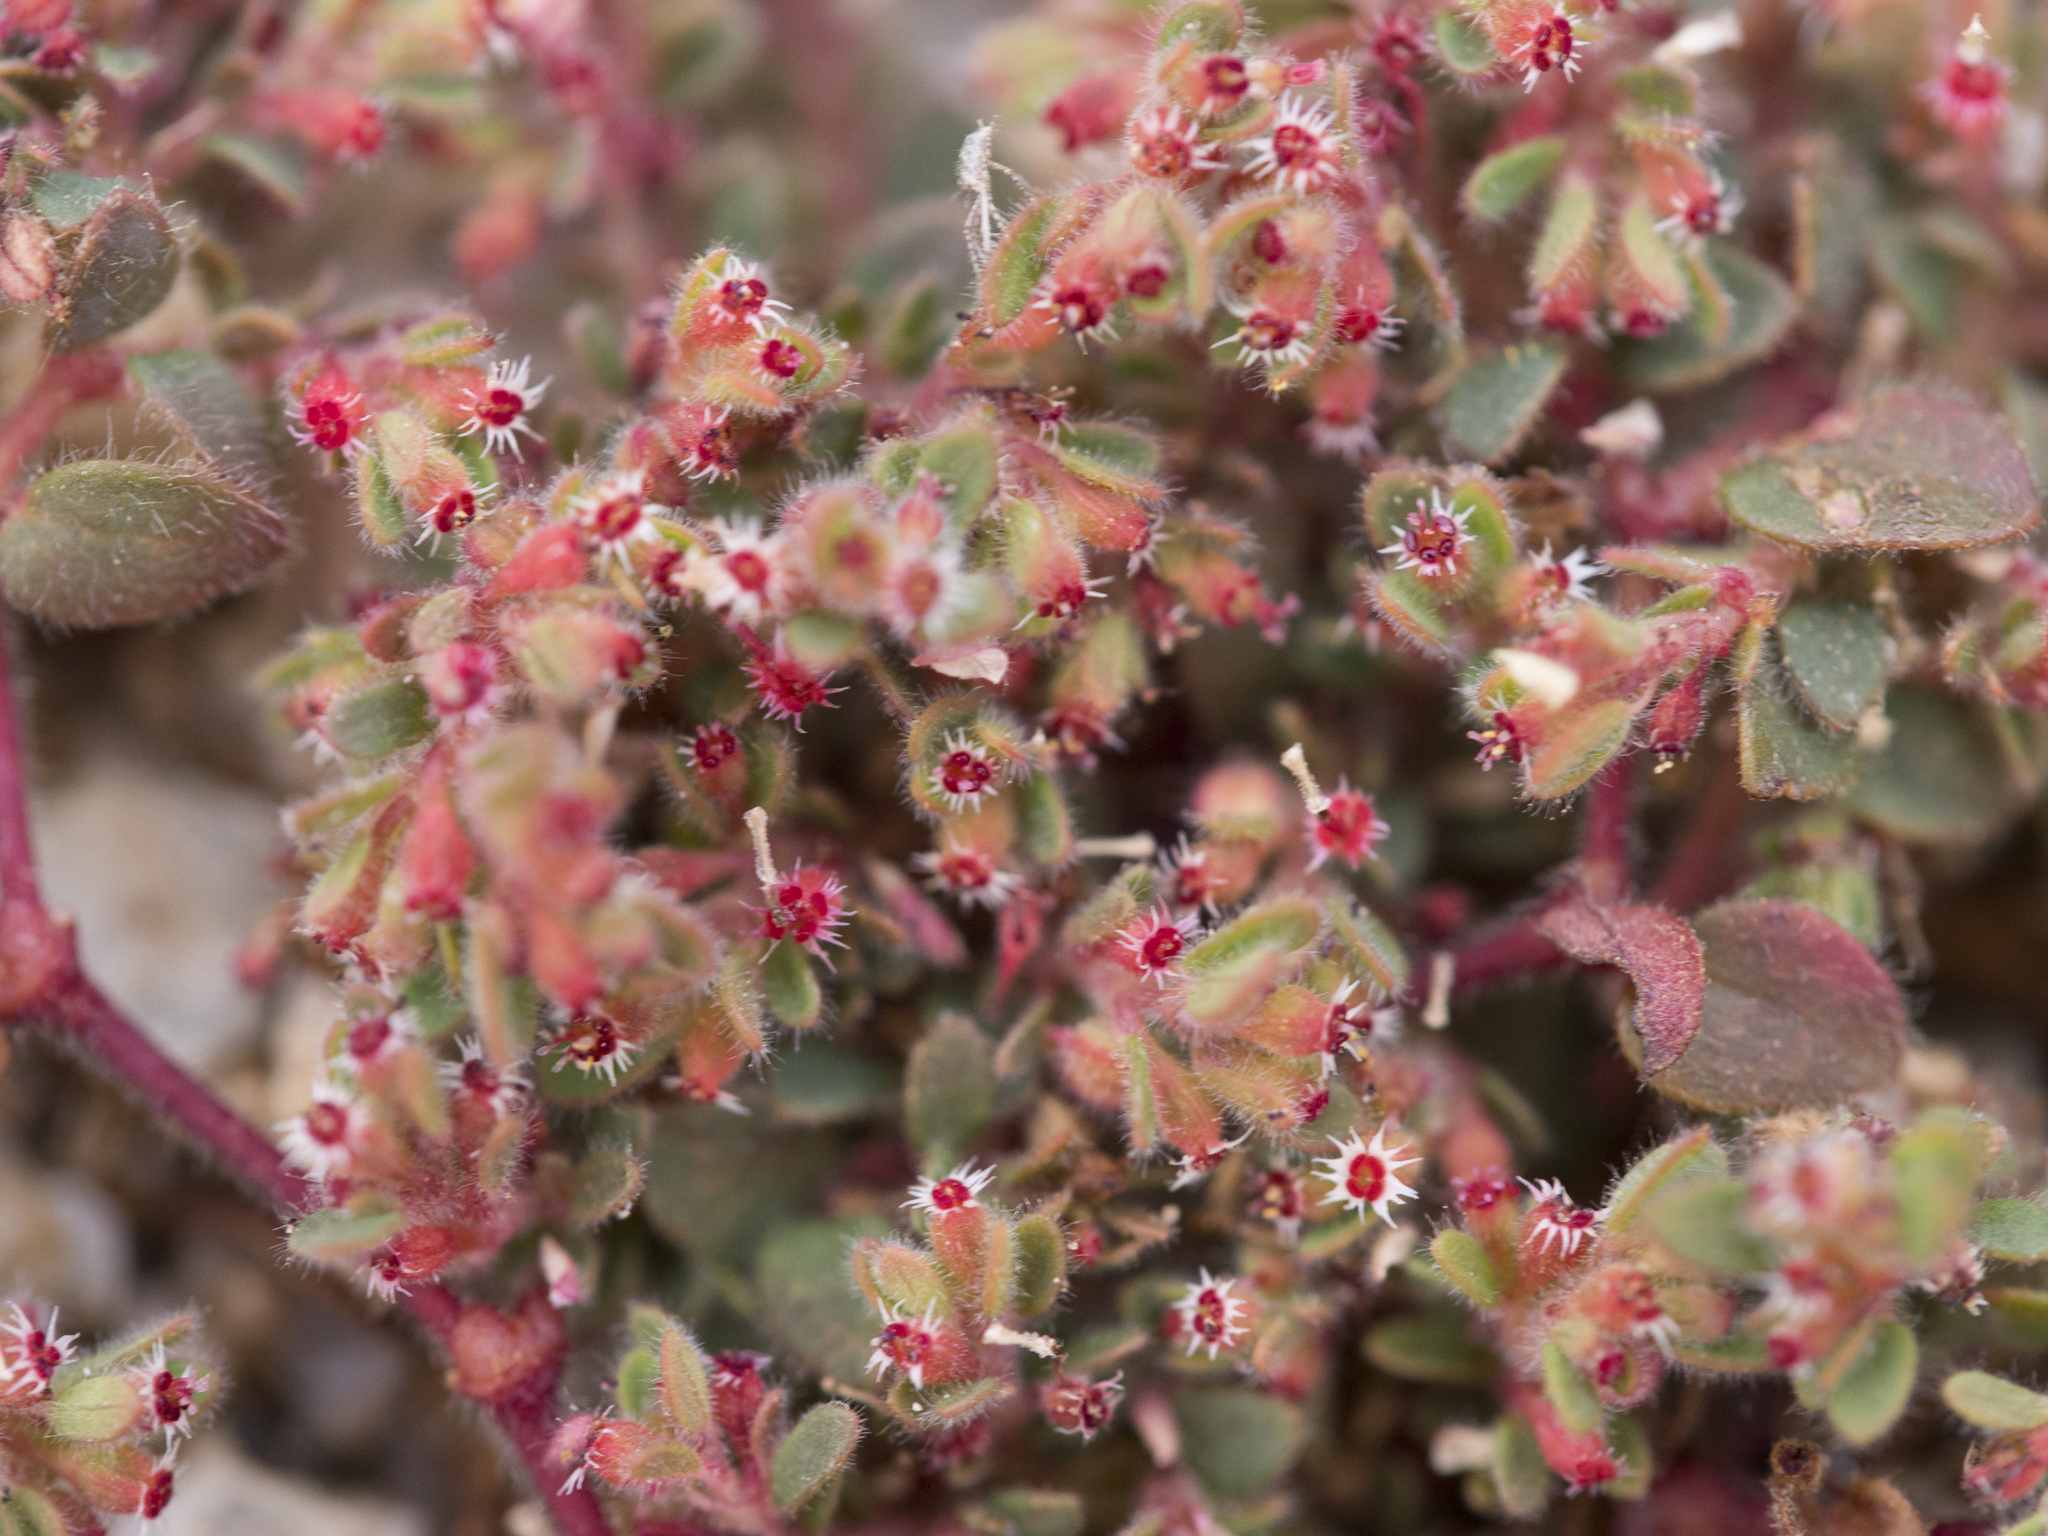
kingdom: Plantae
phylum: Tracheophyta
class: Magnoliopsida
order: Malpighiales
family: Euphorbiaceae
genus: Euphorbia
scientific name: Euphorbia setiloba
